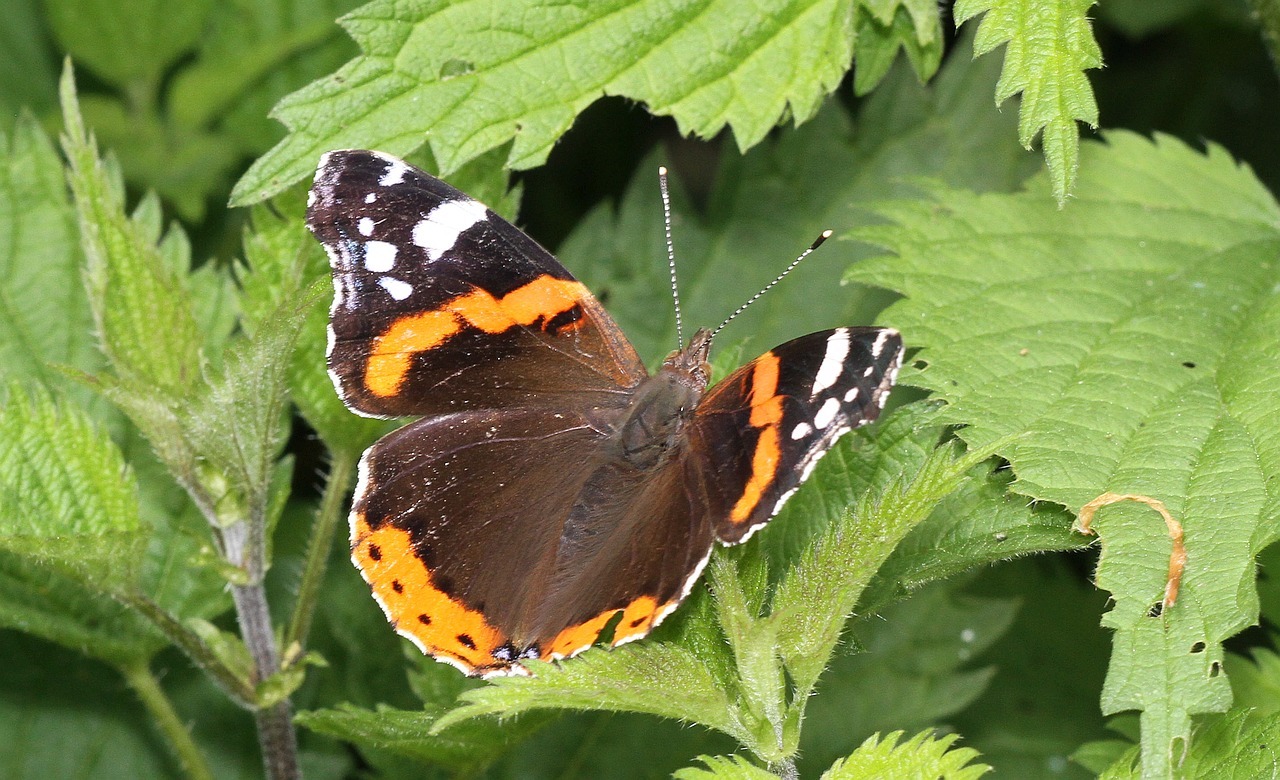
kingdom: Animalia
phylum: Arthropoda
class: Insecta
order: Lepidoptera
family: Nymphalidae
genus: Vanessa
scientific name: Vanessa atalanta
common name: Red admiral
